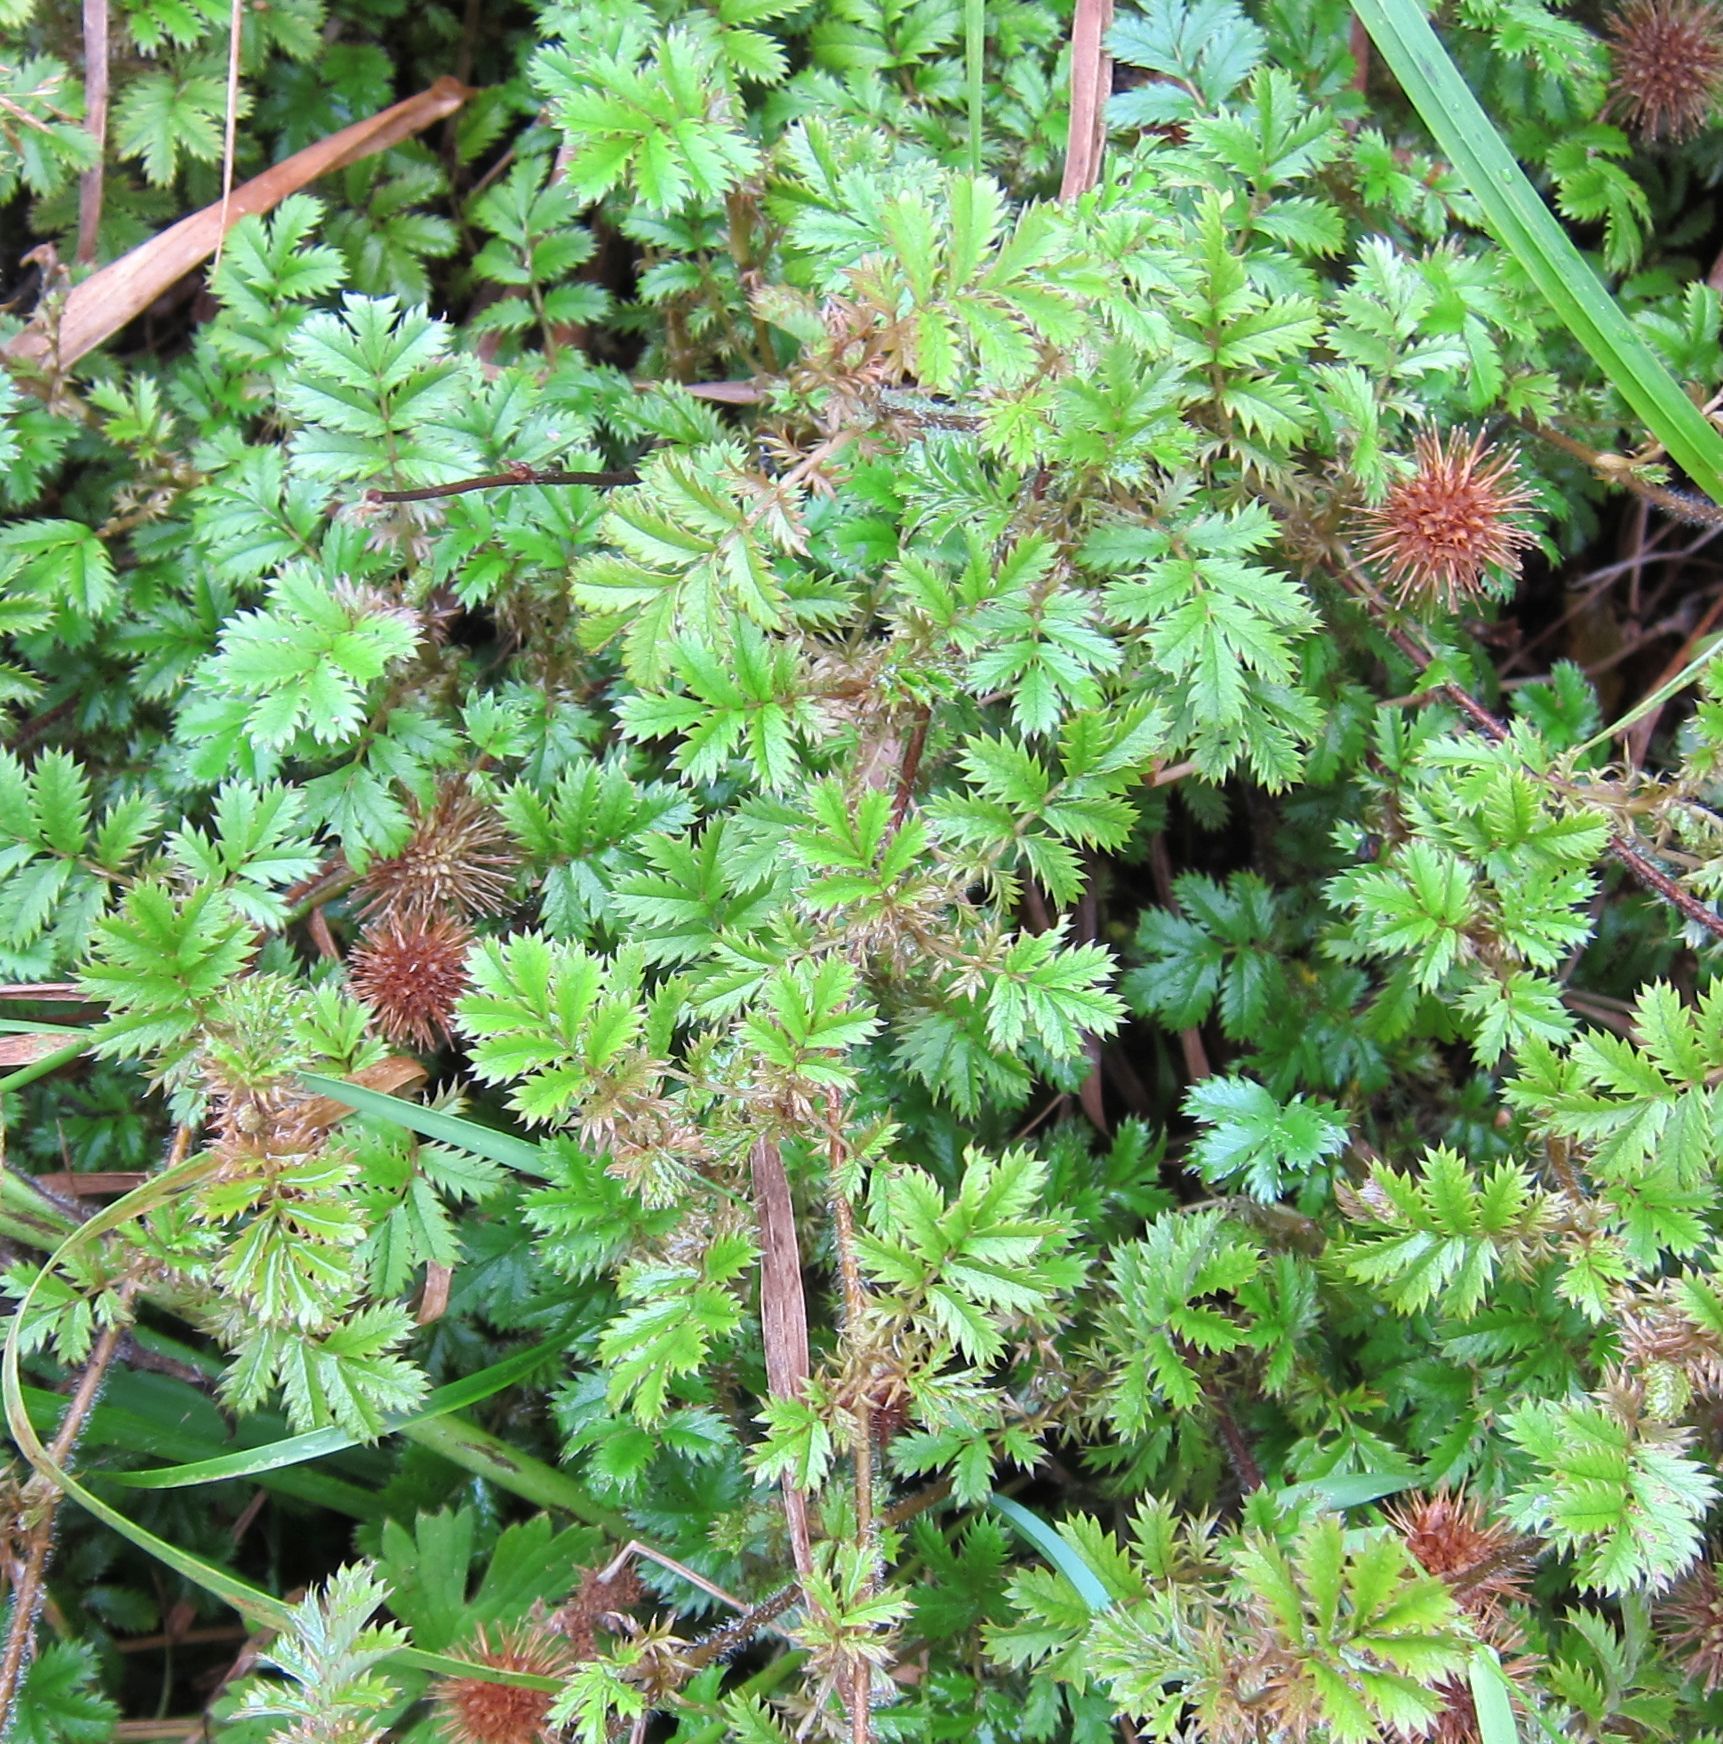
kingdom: Plantae
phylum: Tracheophyta
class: Magnoliopsida
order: Rosales
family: Rosaceae
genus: Acaena
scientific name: Acaena anserinifolia
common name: Bronze pirri-pirri-bur
